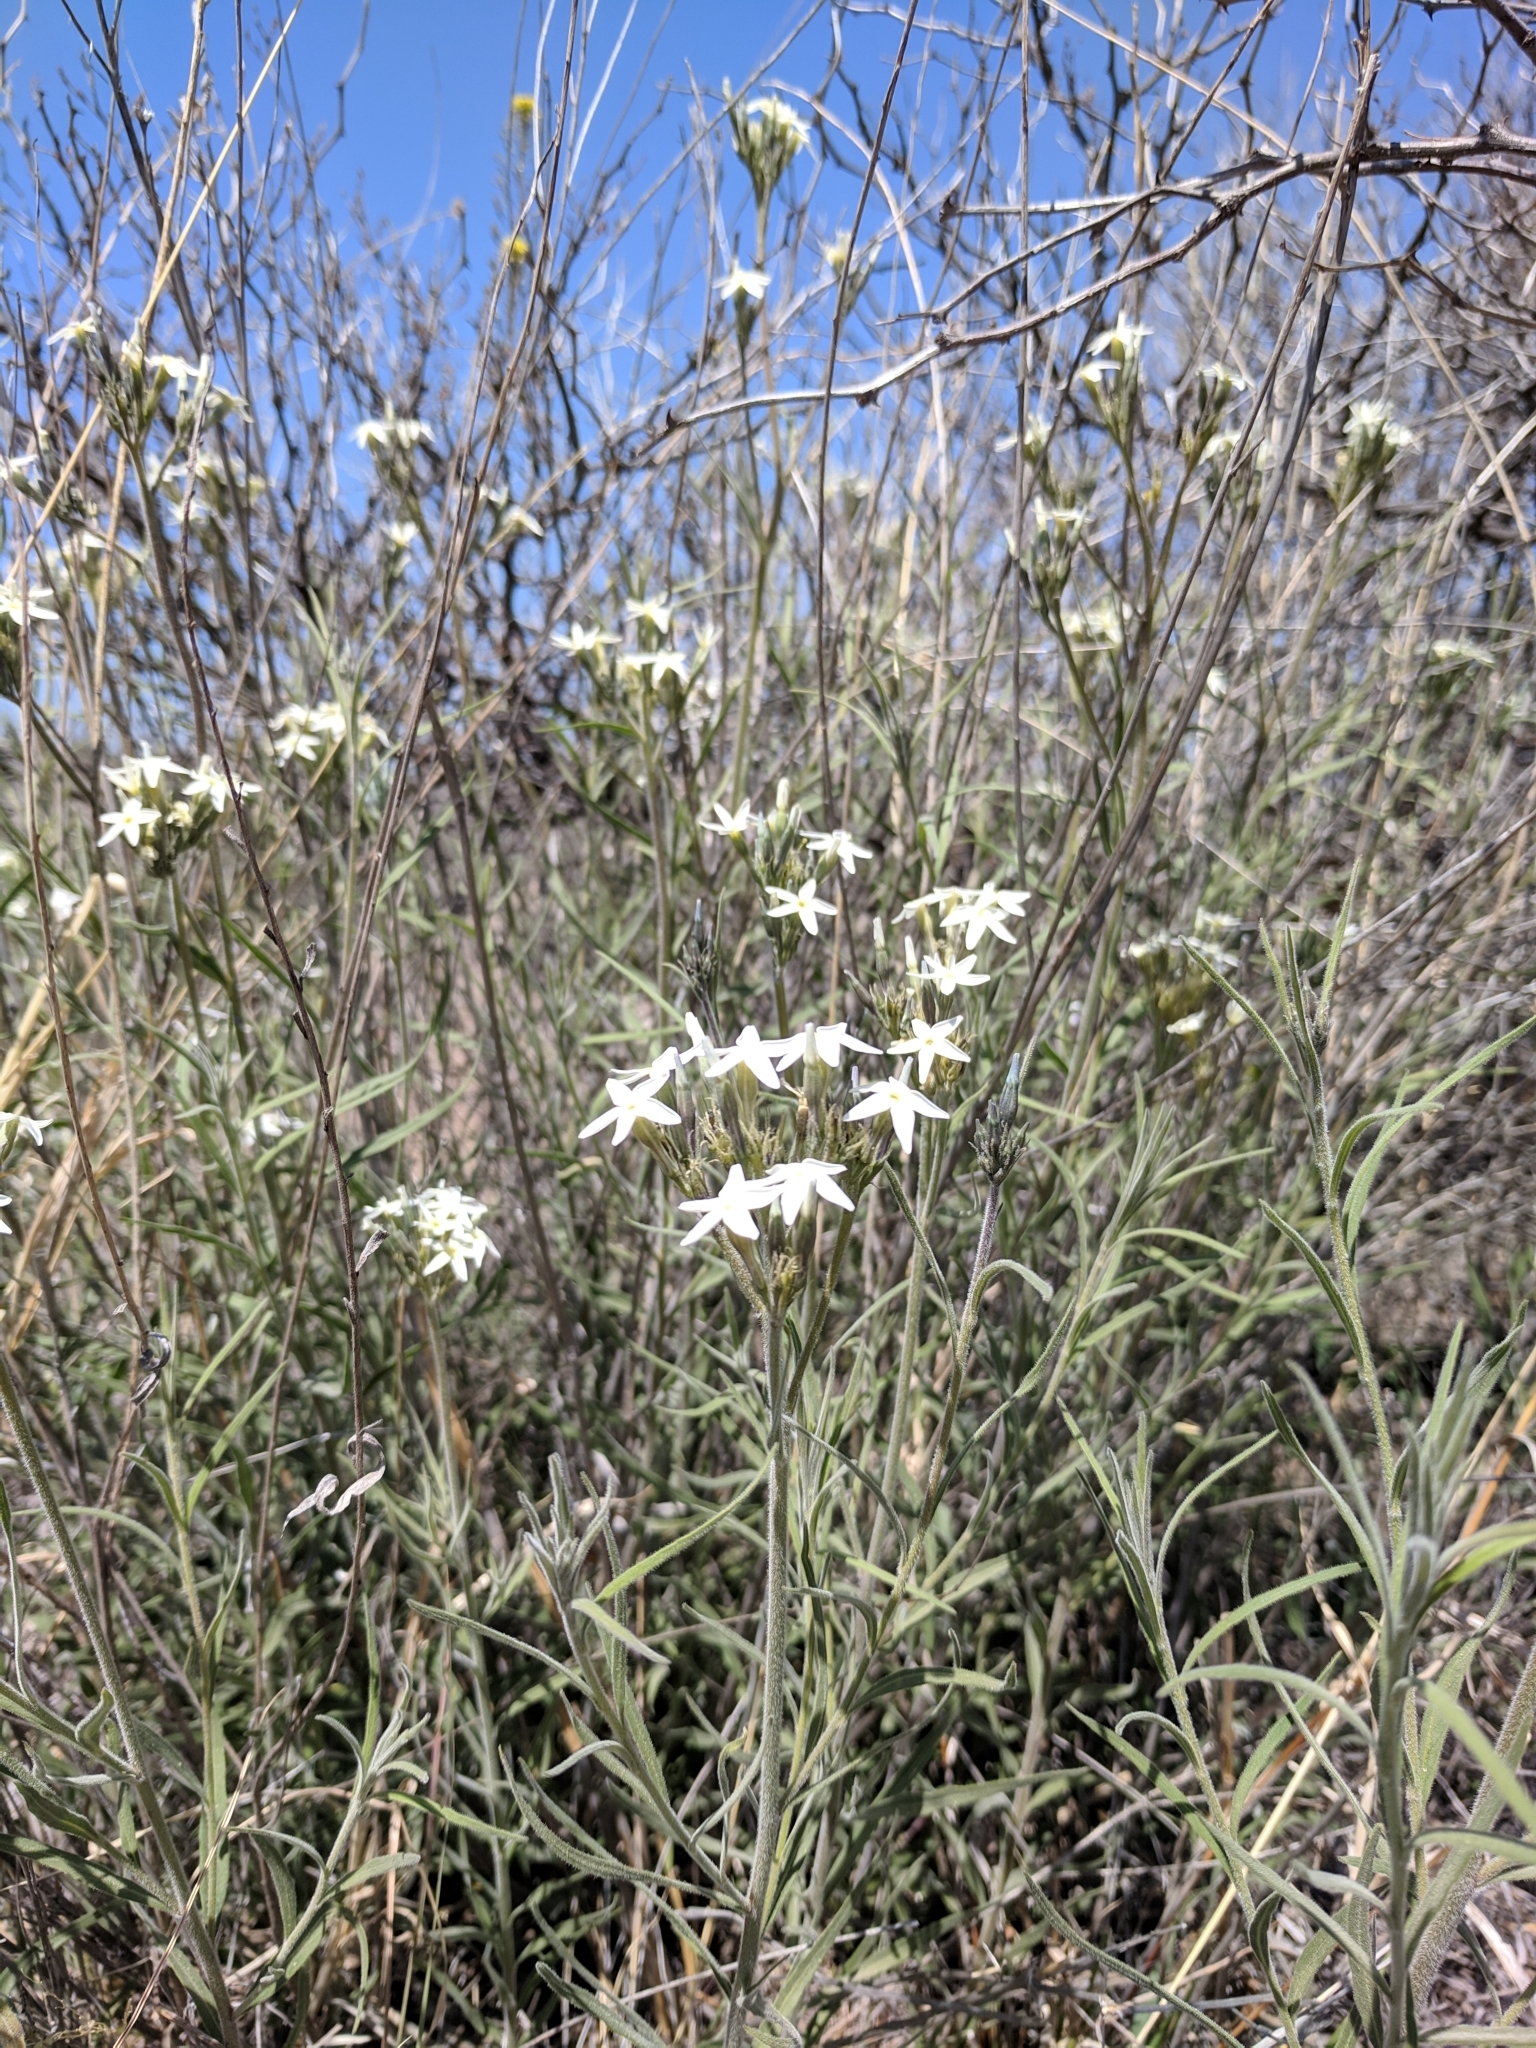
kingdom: Plantae
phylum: Tracheophyta
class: Magnoliopsida
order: Gentianales
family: Apocynaceae
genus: Amsonia
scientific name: Amsonia palmeri
